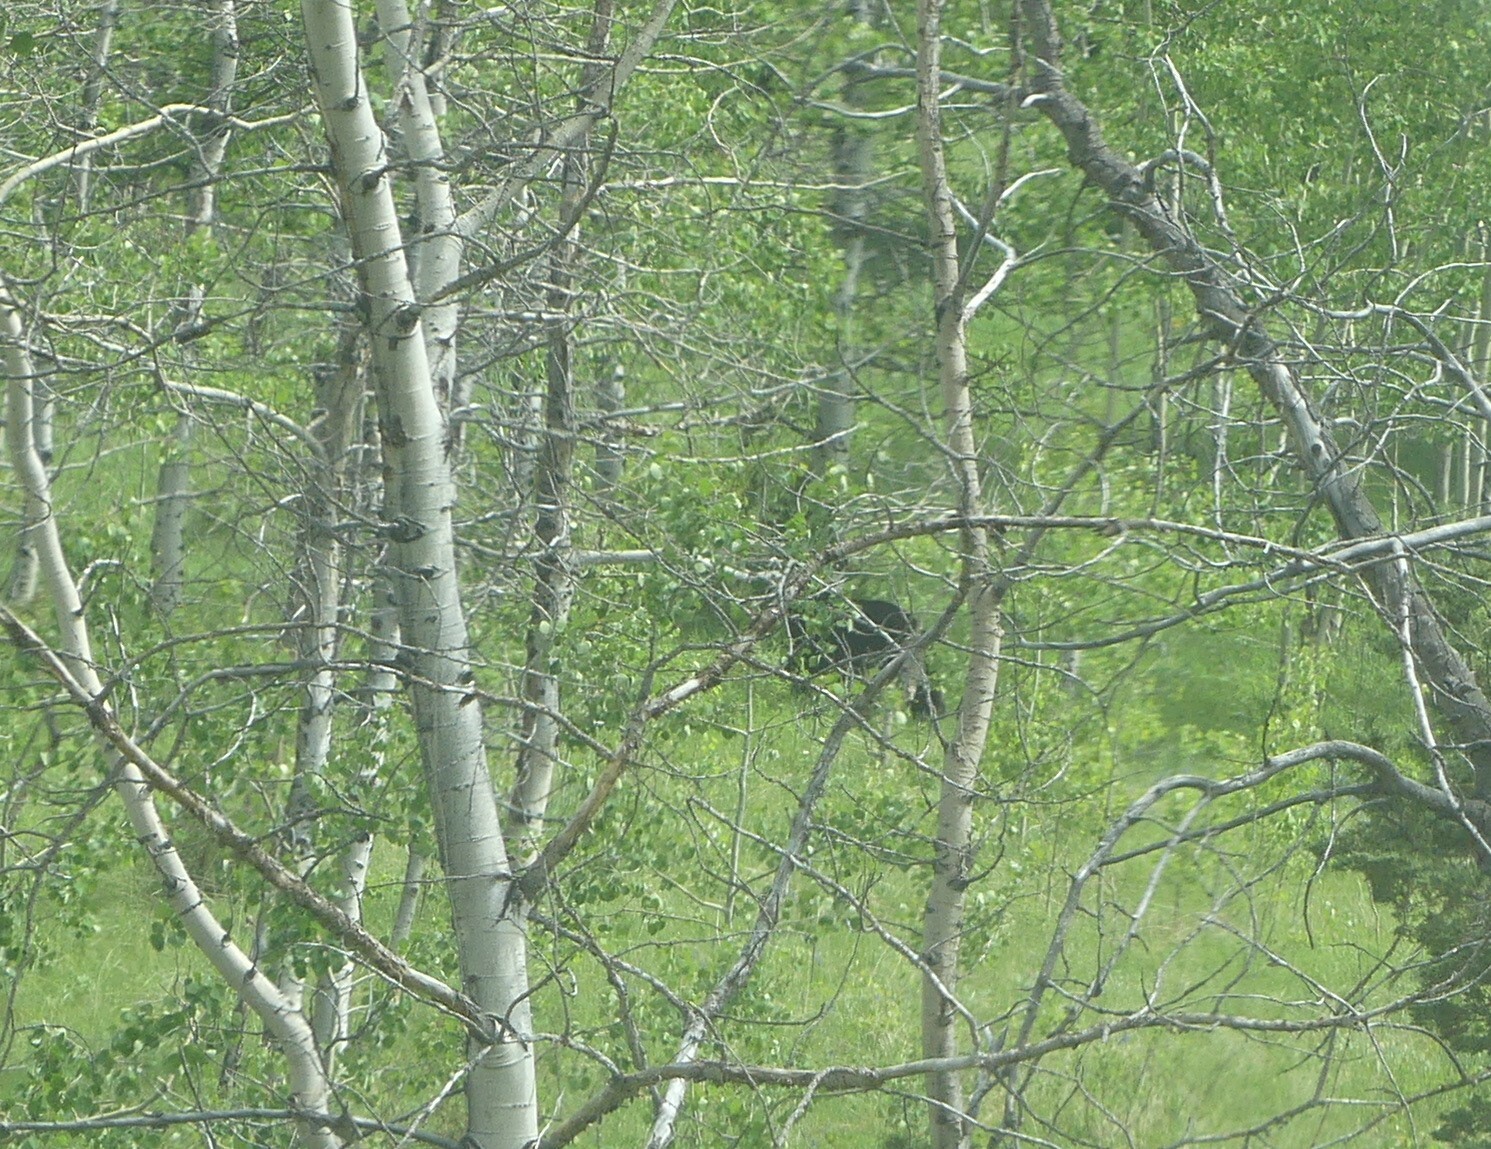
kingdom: Animalia
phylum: Chordata
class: Mammalia
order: Carnivora
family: Ursidae
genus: Ursus
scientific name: Ursus americanus
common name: American black bear
